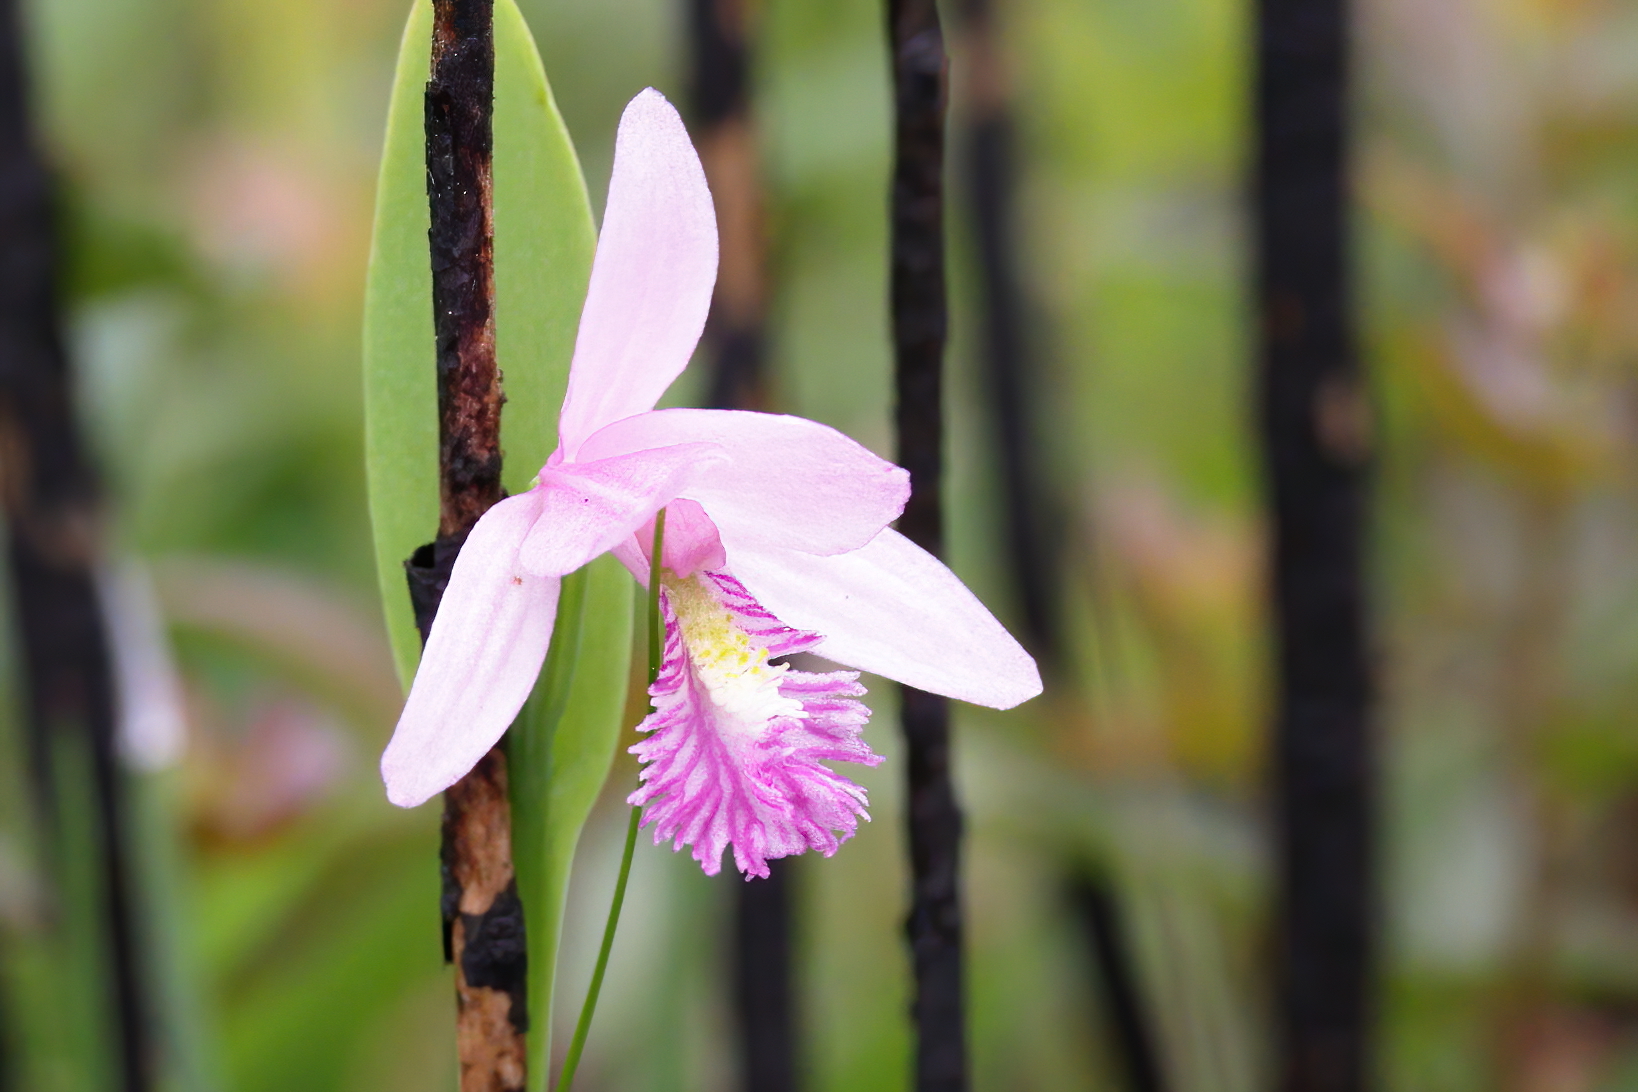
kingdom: Plantae
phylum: Tracheophyta
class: Liliopsida
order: Asparagales
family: Orchidaceae
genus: Pogonia
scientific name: Pogonia ophioglossoides
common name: Rose pogonia
